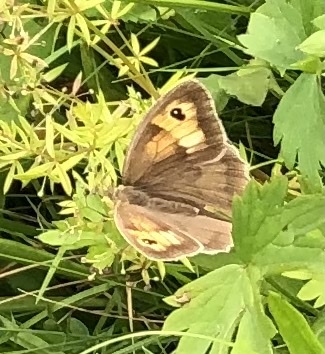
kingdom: Animalia
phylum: Arthropoda
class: Insecta
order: Lepidoptera
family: Nymphalidae
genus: Maniola
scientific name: Maniola jurtina
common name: Meadow brown
